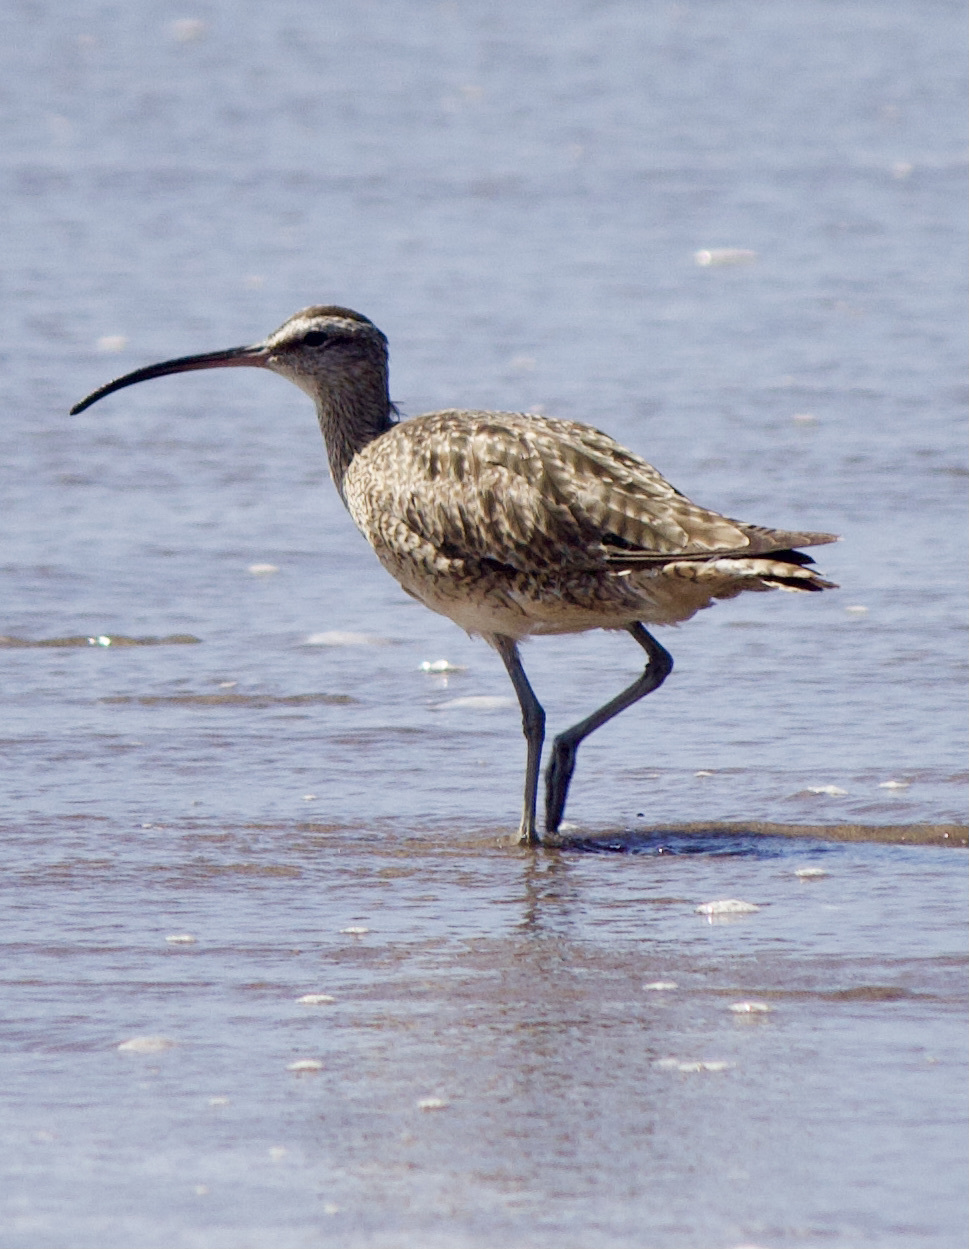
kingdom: Animalia
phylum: Chordata
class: Aves
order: Charadriiformes
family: Scolopacidae
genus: Numenius
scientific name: Numenius phaeopus
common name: Whimbrel
